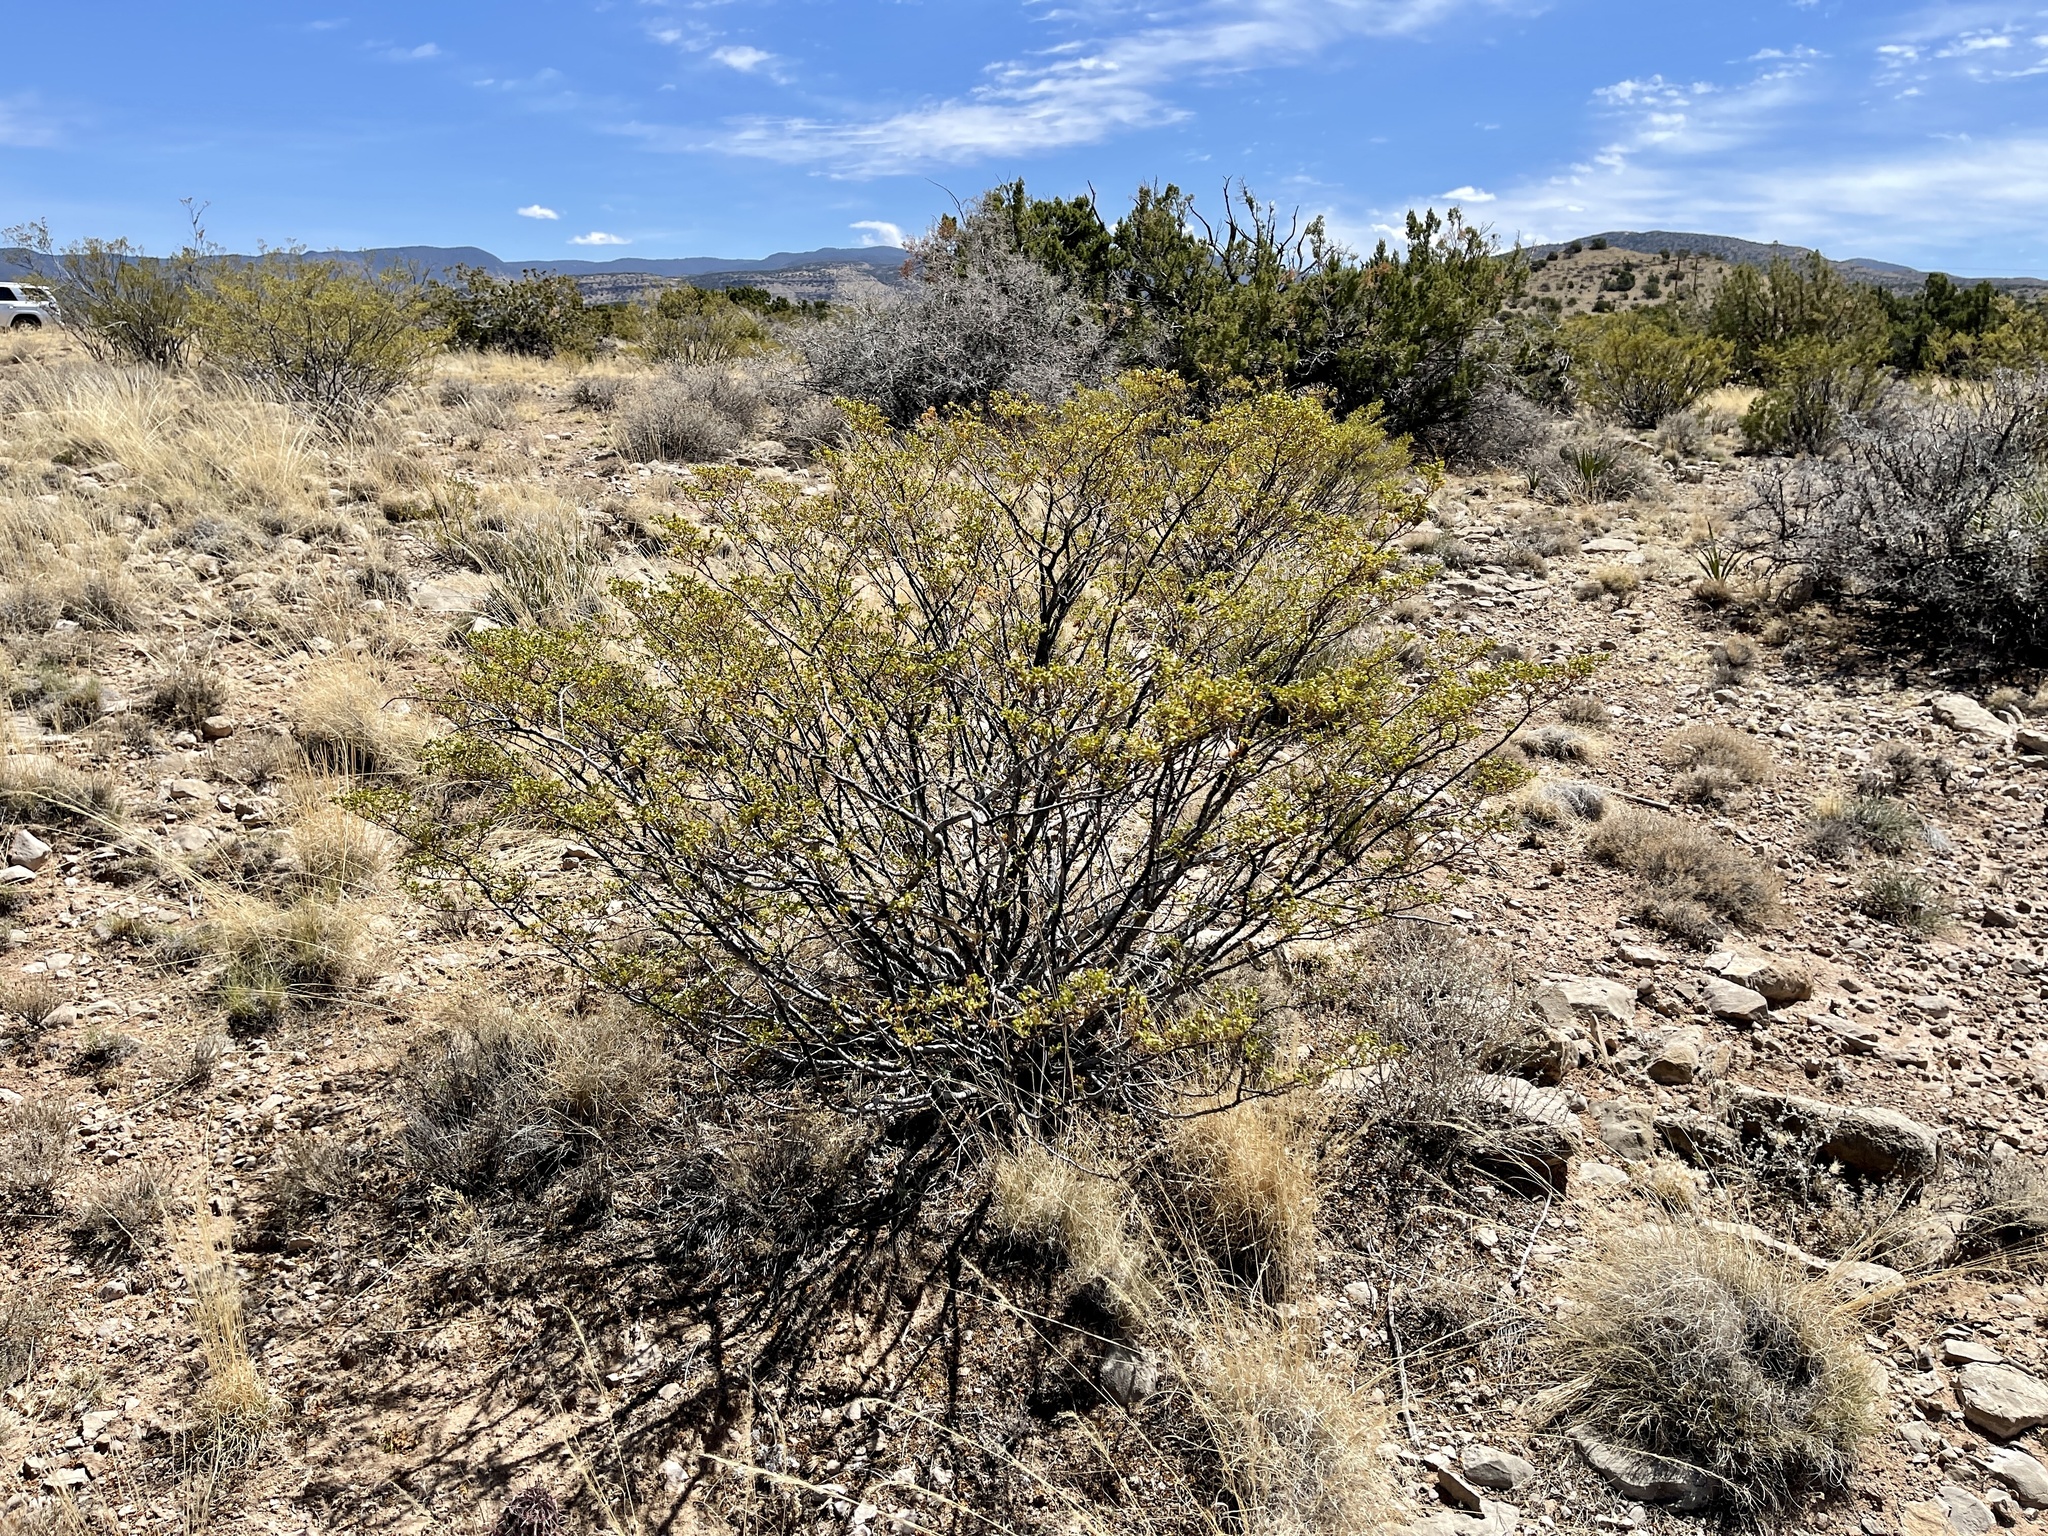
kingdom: Plantae
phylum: Tracheophyta
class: Magnoliopsida
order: Zygophyllales
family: Zygophyllaceae
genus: Larrea
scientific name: Larrea tridentata
